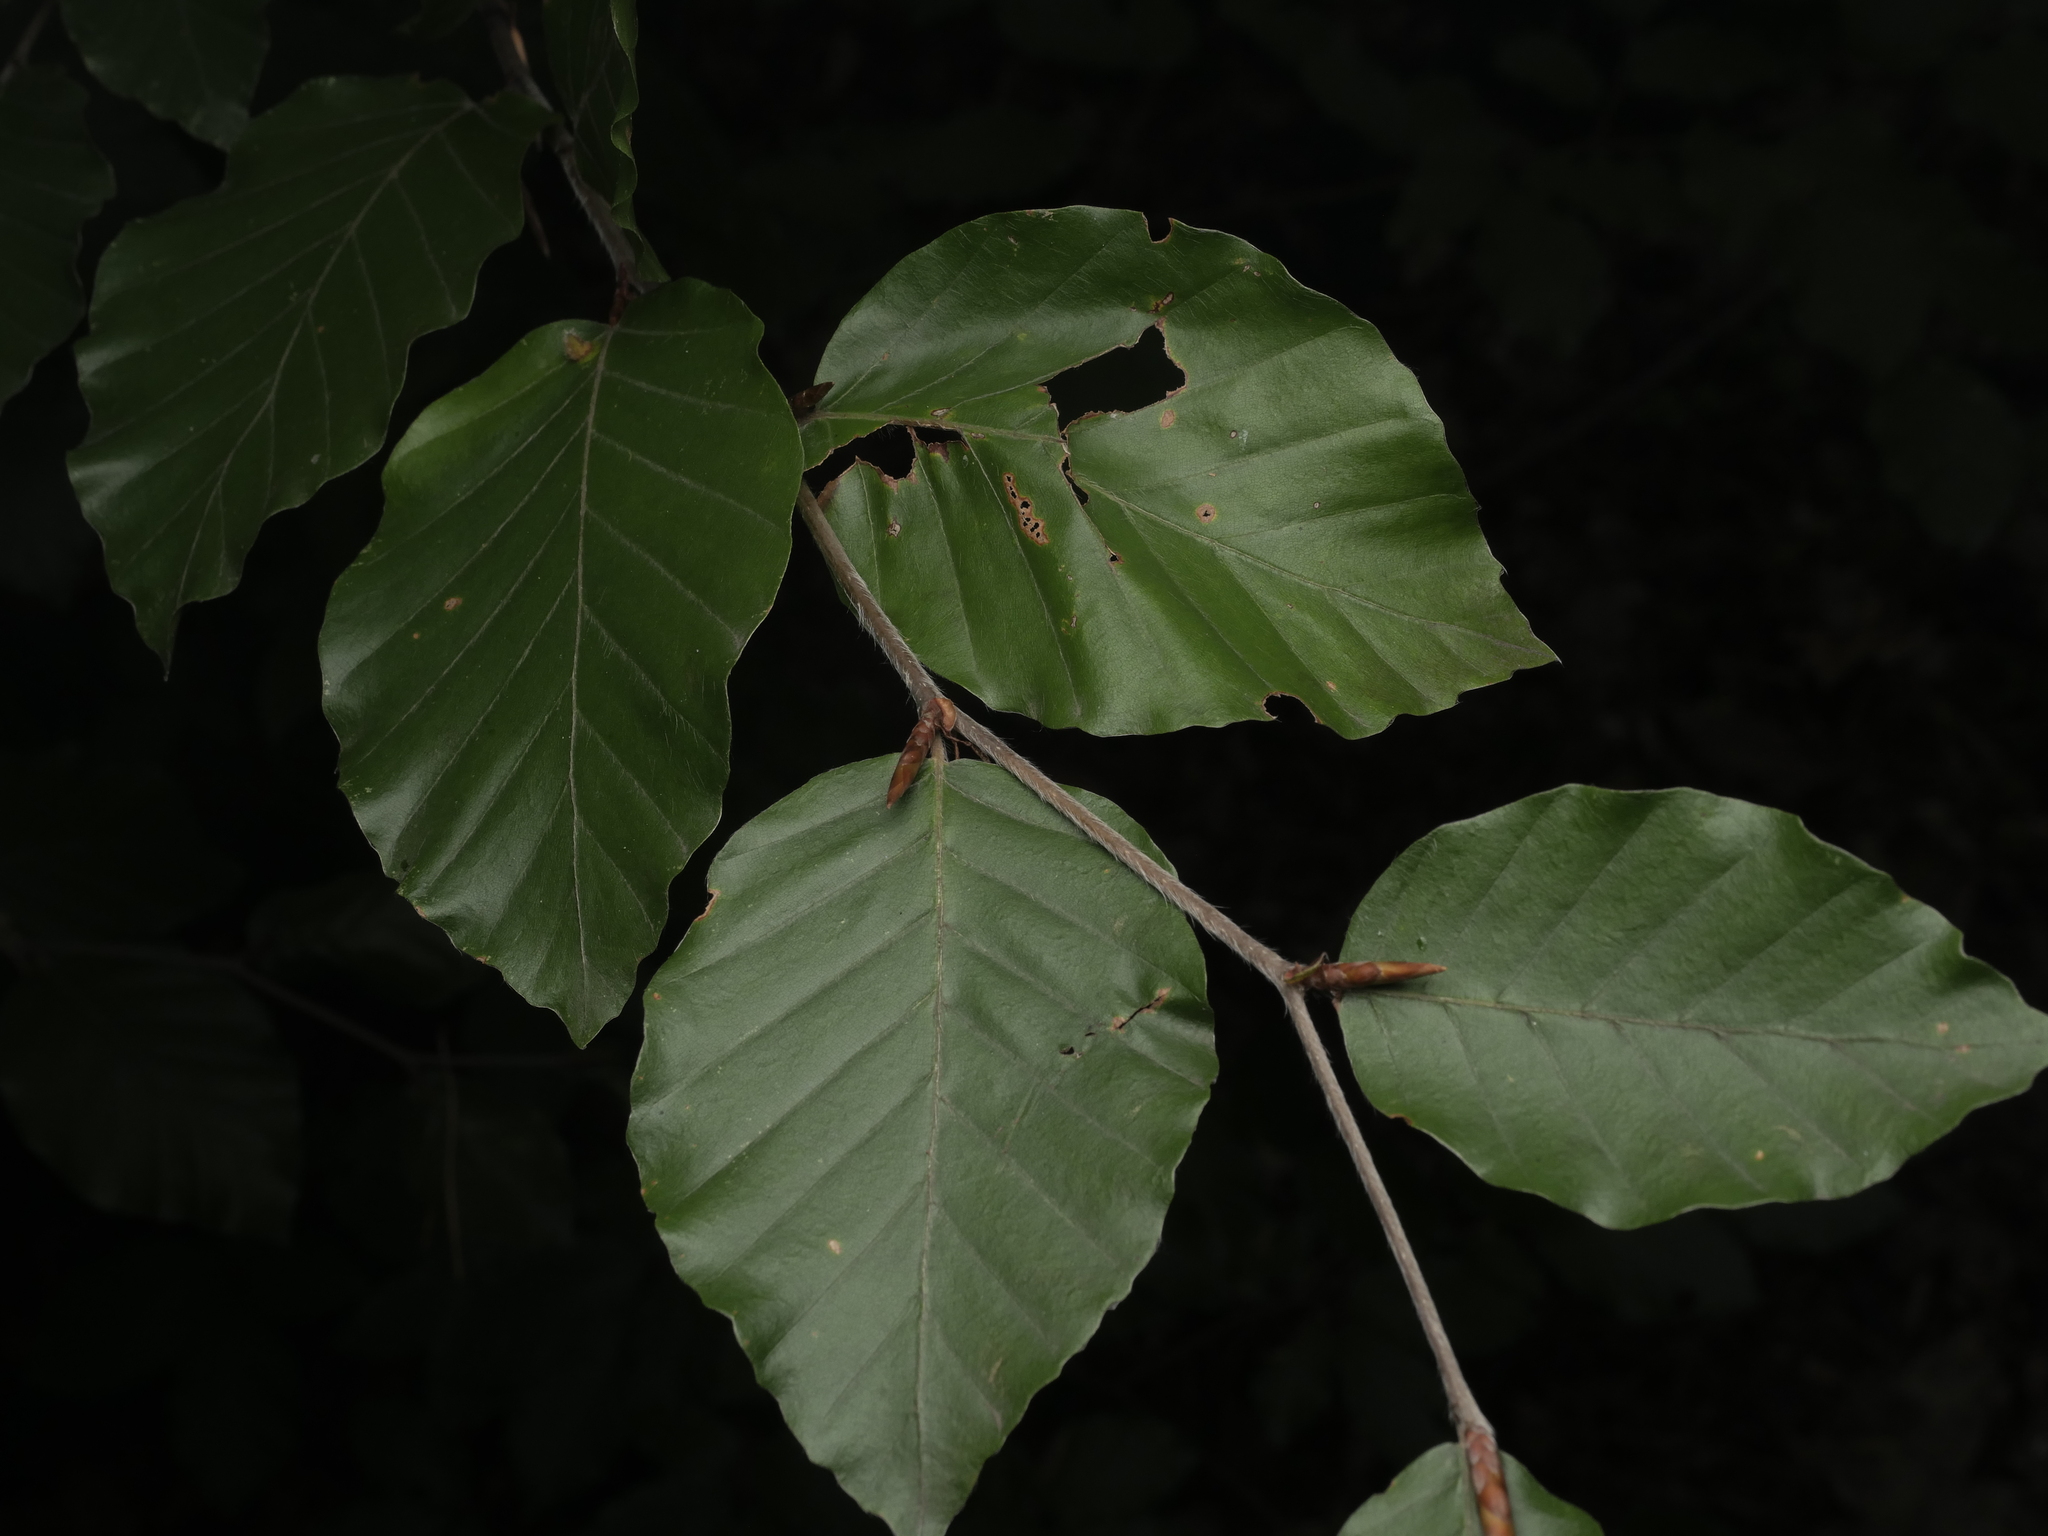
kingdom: Plantae
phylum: Tracheophyta
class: Magnoliopsida
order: Fagales
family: Fagaceae
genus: Fagus
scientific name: Fagus sylvatica
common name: Beech
